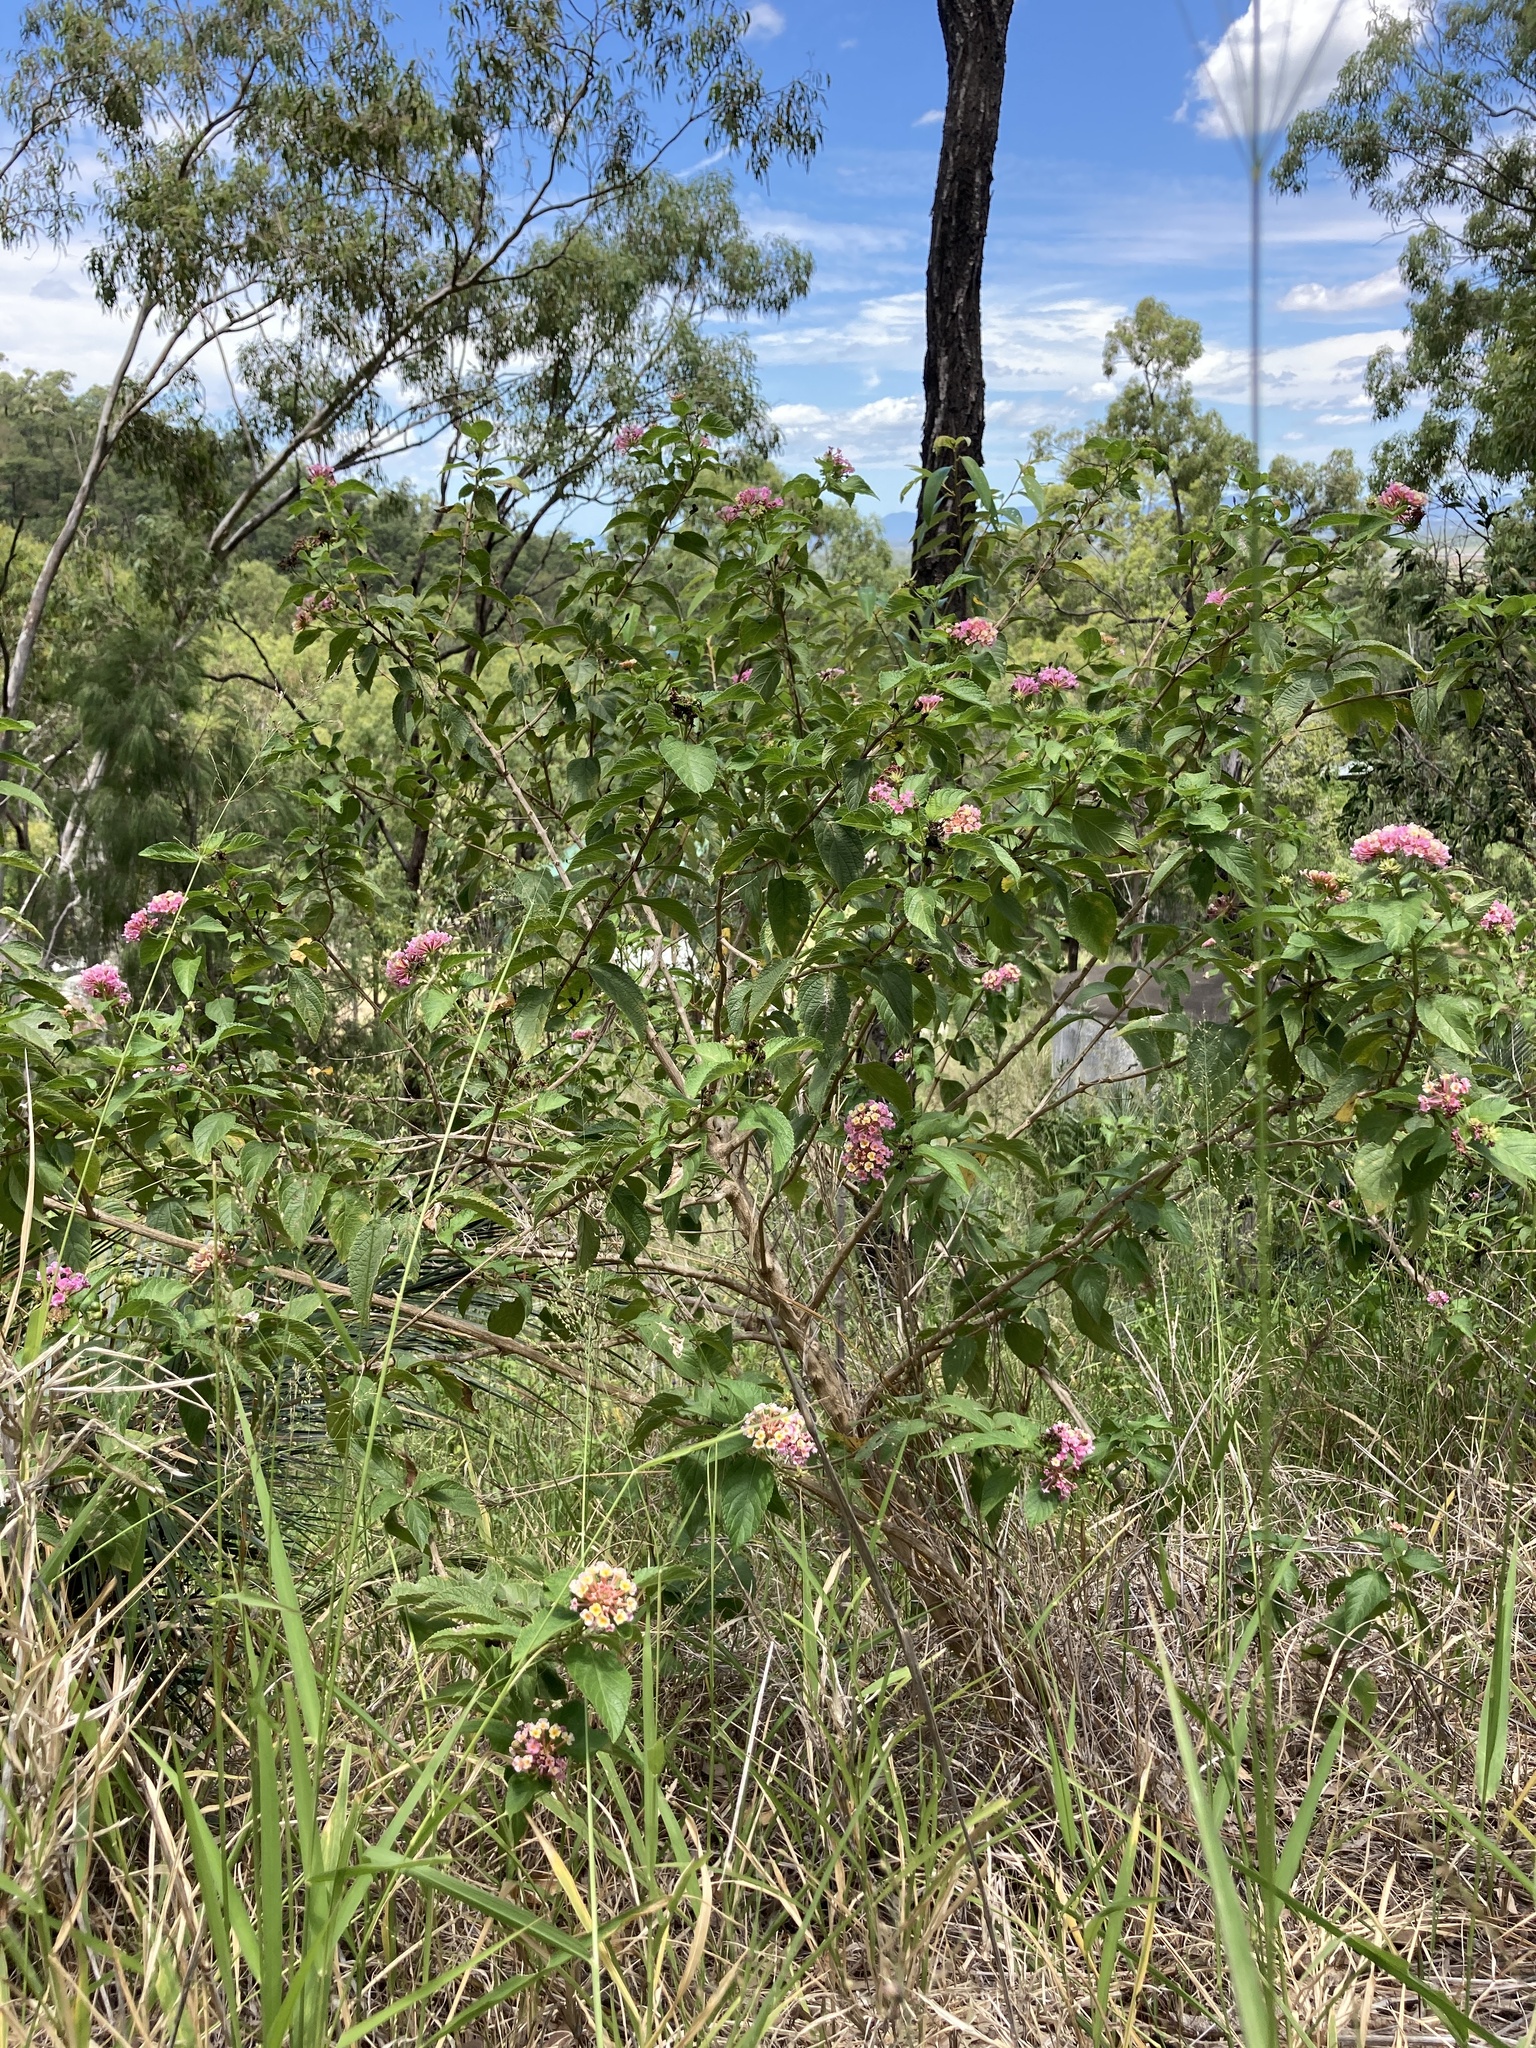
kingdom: Plantae
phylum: Tracheophyta
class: Magnoliopsida
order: Lamiales
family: Verbenaceae
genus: Lantana
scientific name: Lantana camara
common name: Lantana
